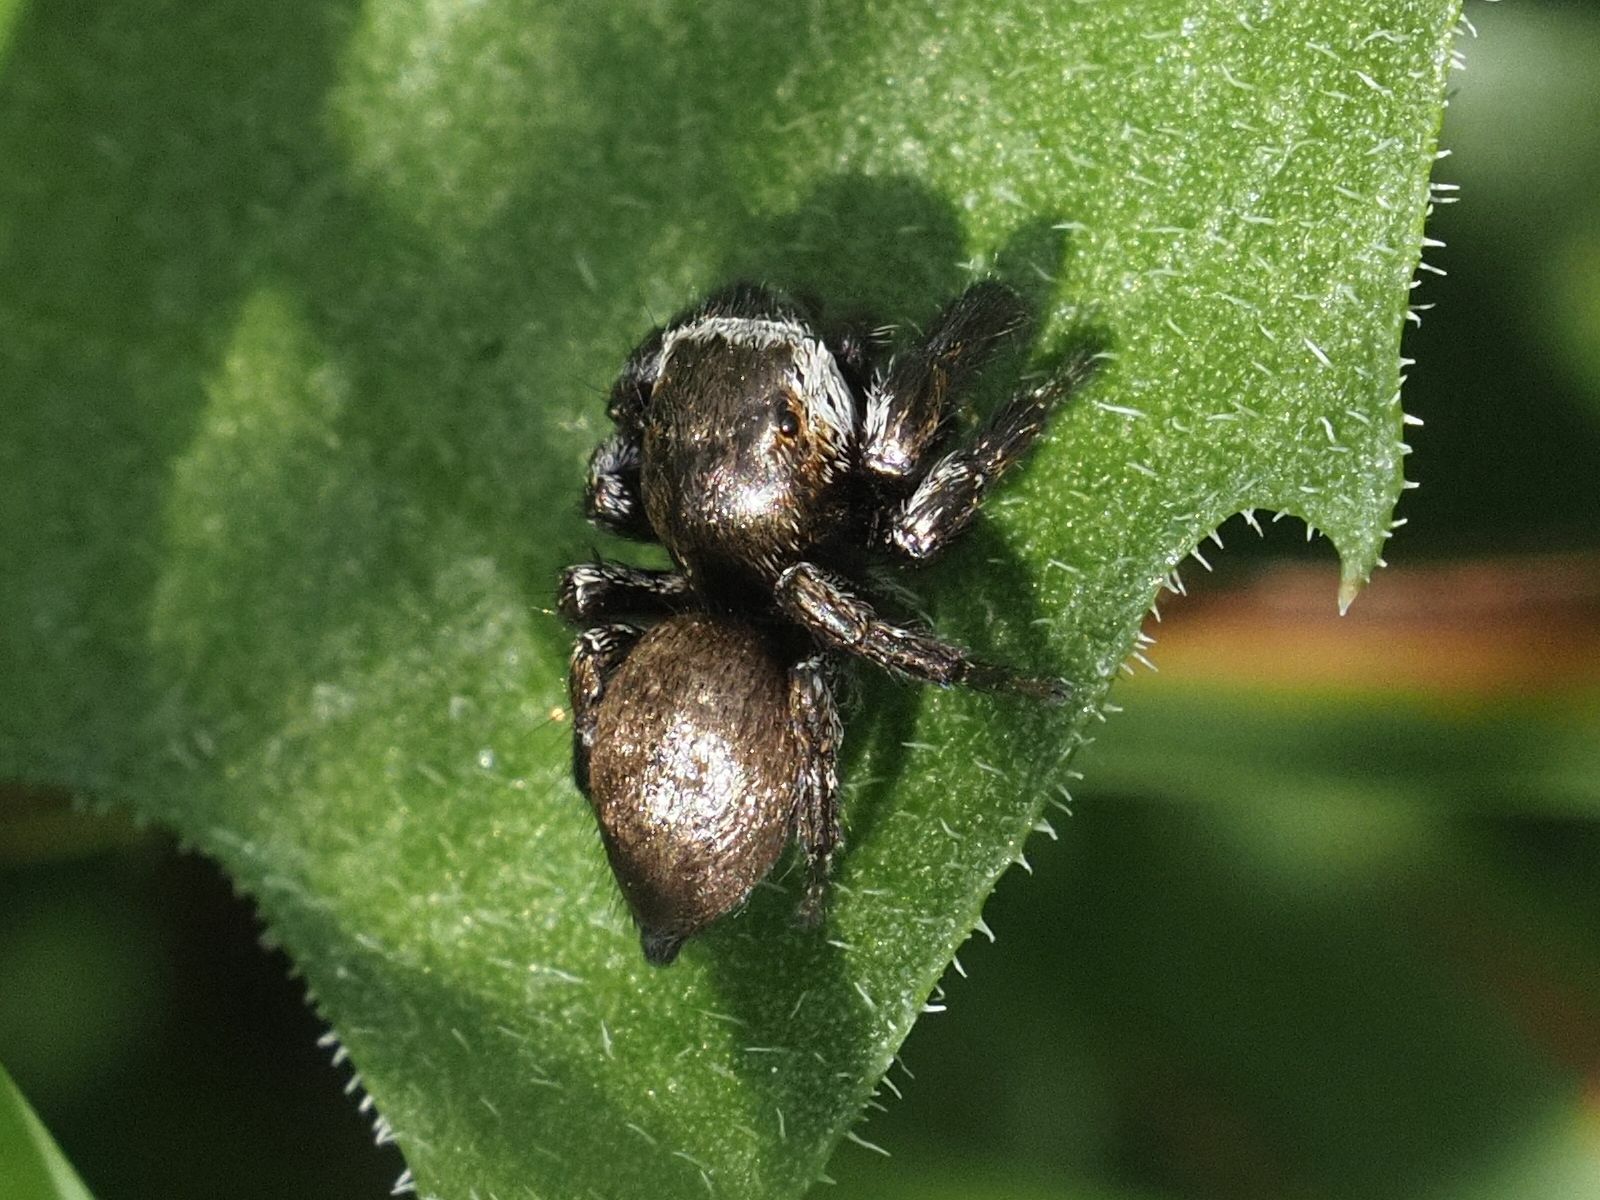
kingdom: Animalia
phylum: Arthropoda
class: Arachnida
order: Araneae
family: Salticidae
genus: Evarcha
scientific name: Evarcha arcuata
